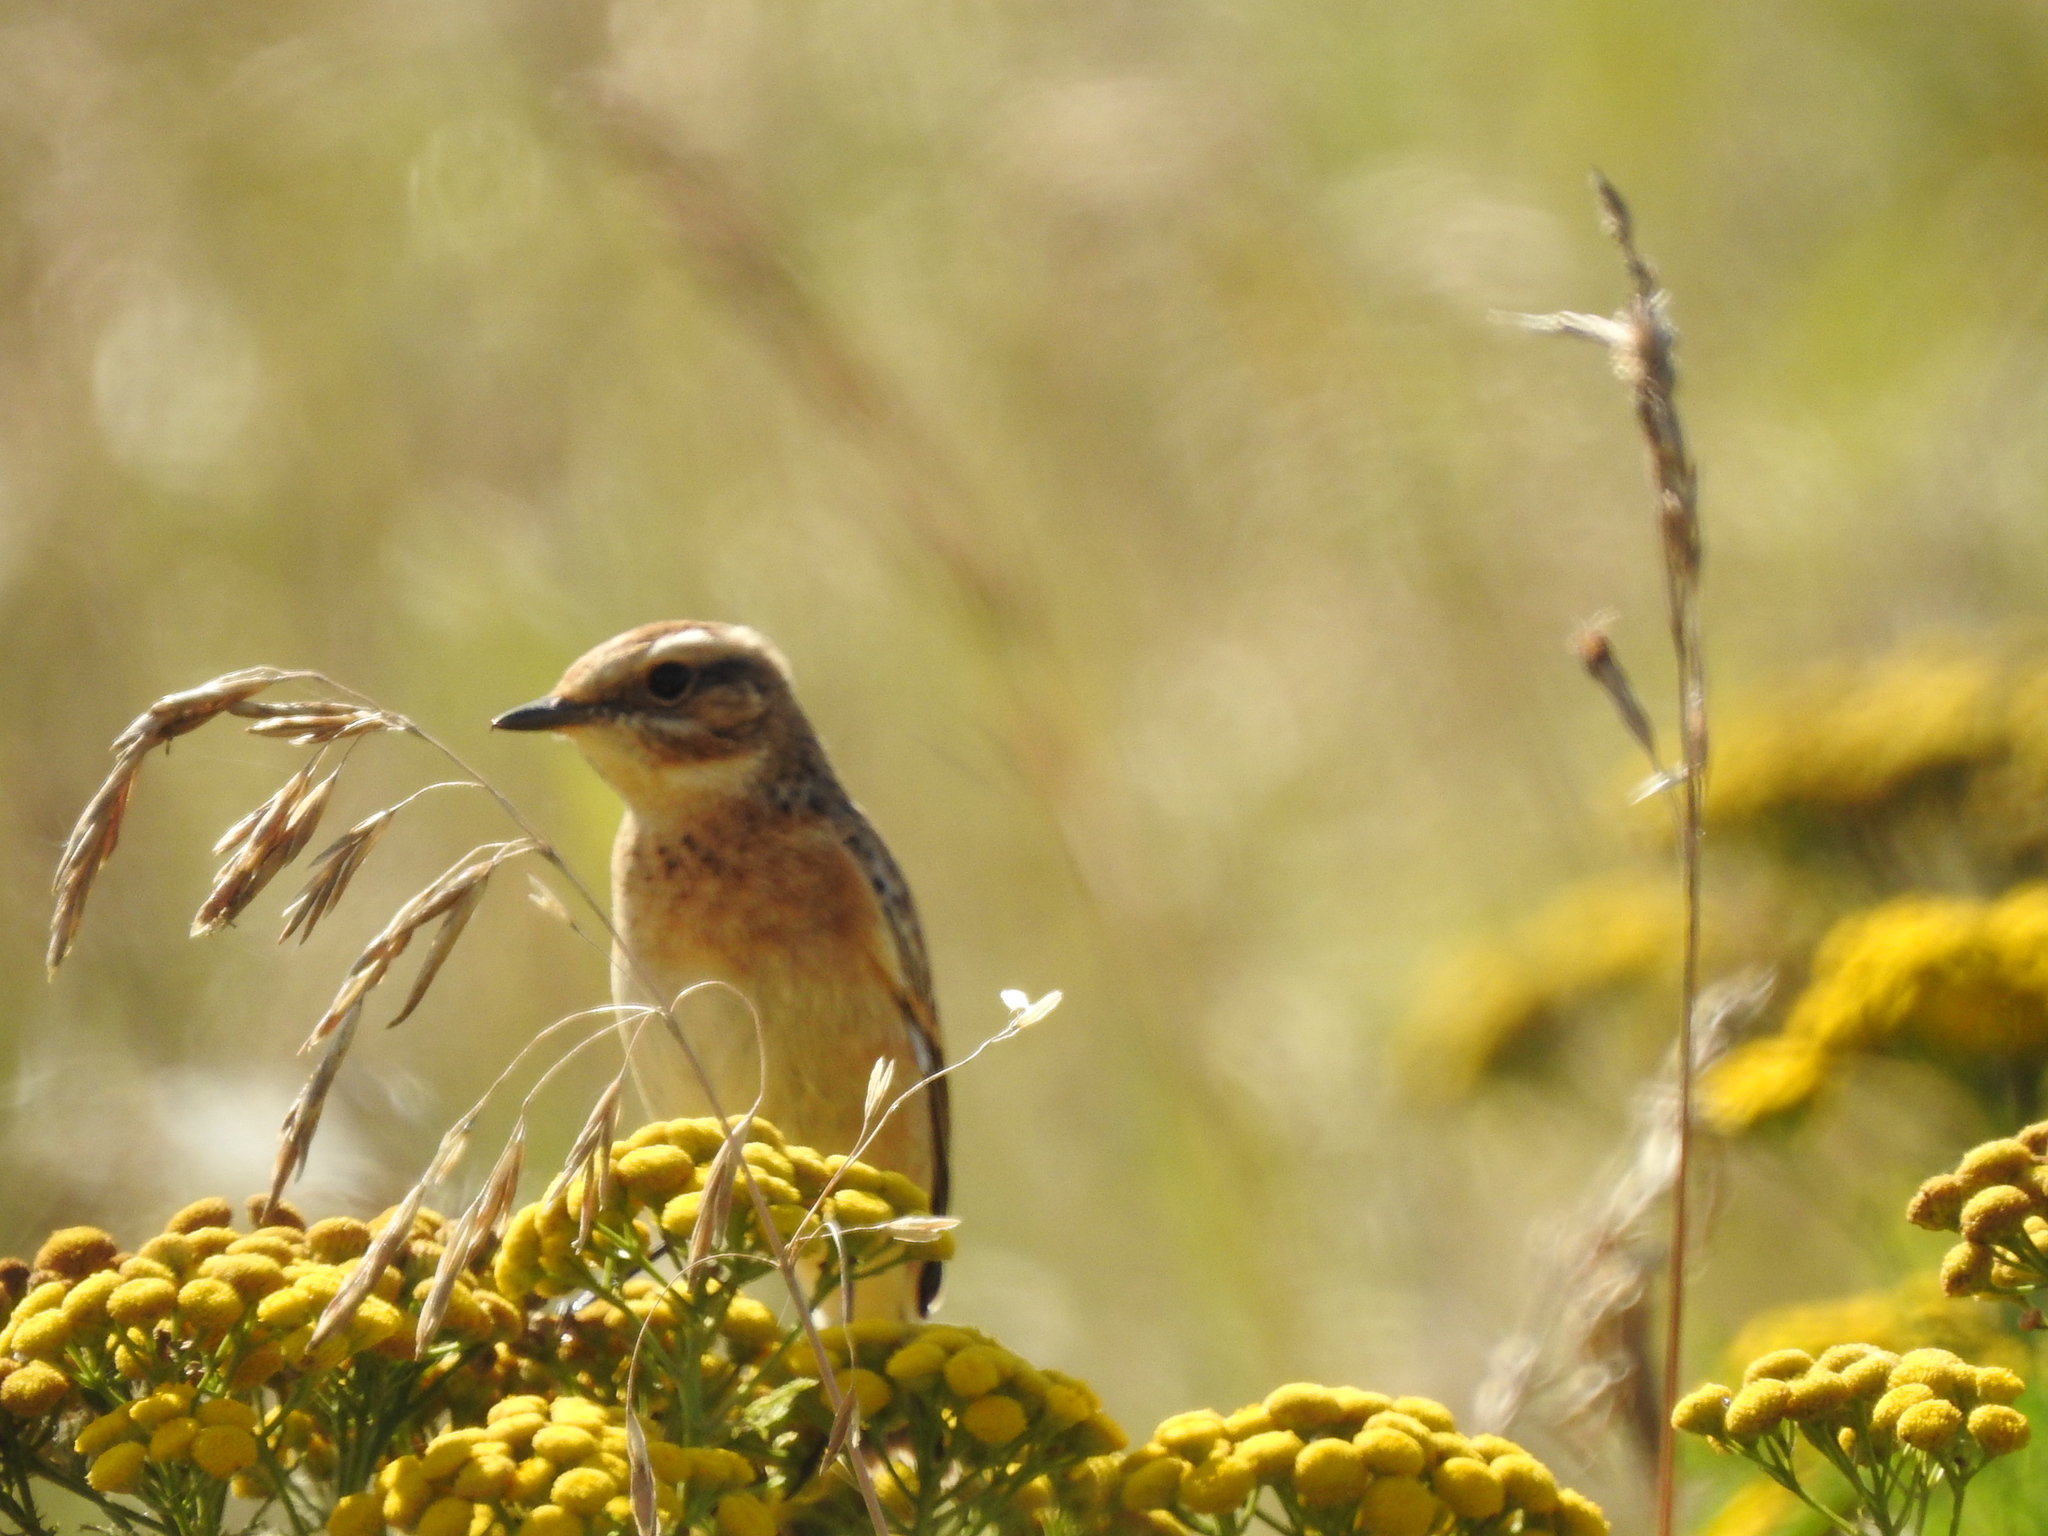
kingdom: Animalia
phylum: Chordata
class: Aves
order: Passeriformes
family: Muscicapidae
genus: Saxicola
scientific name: Saxicola rubetra
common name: Whinchat
